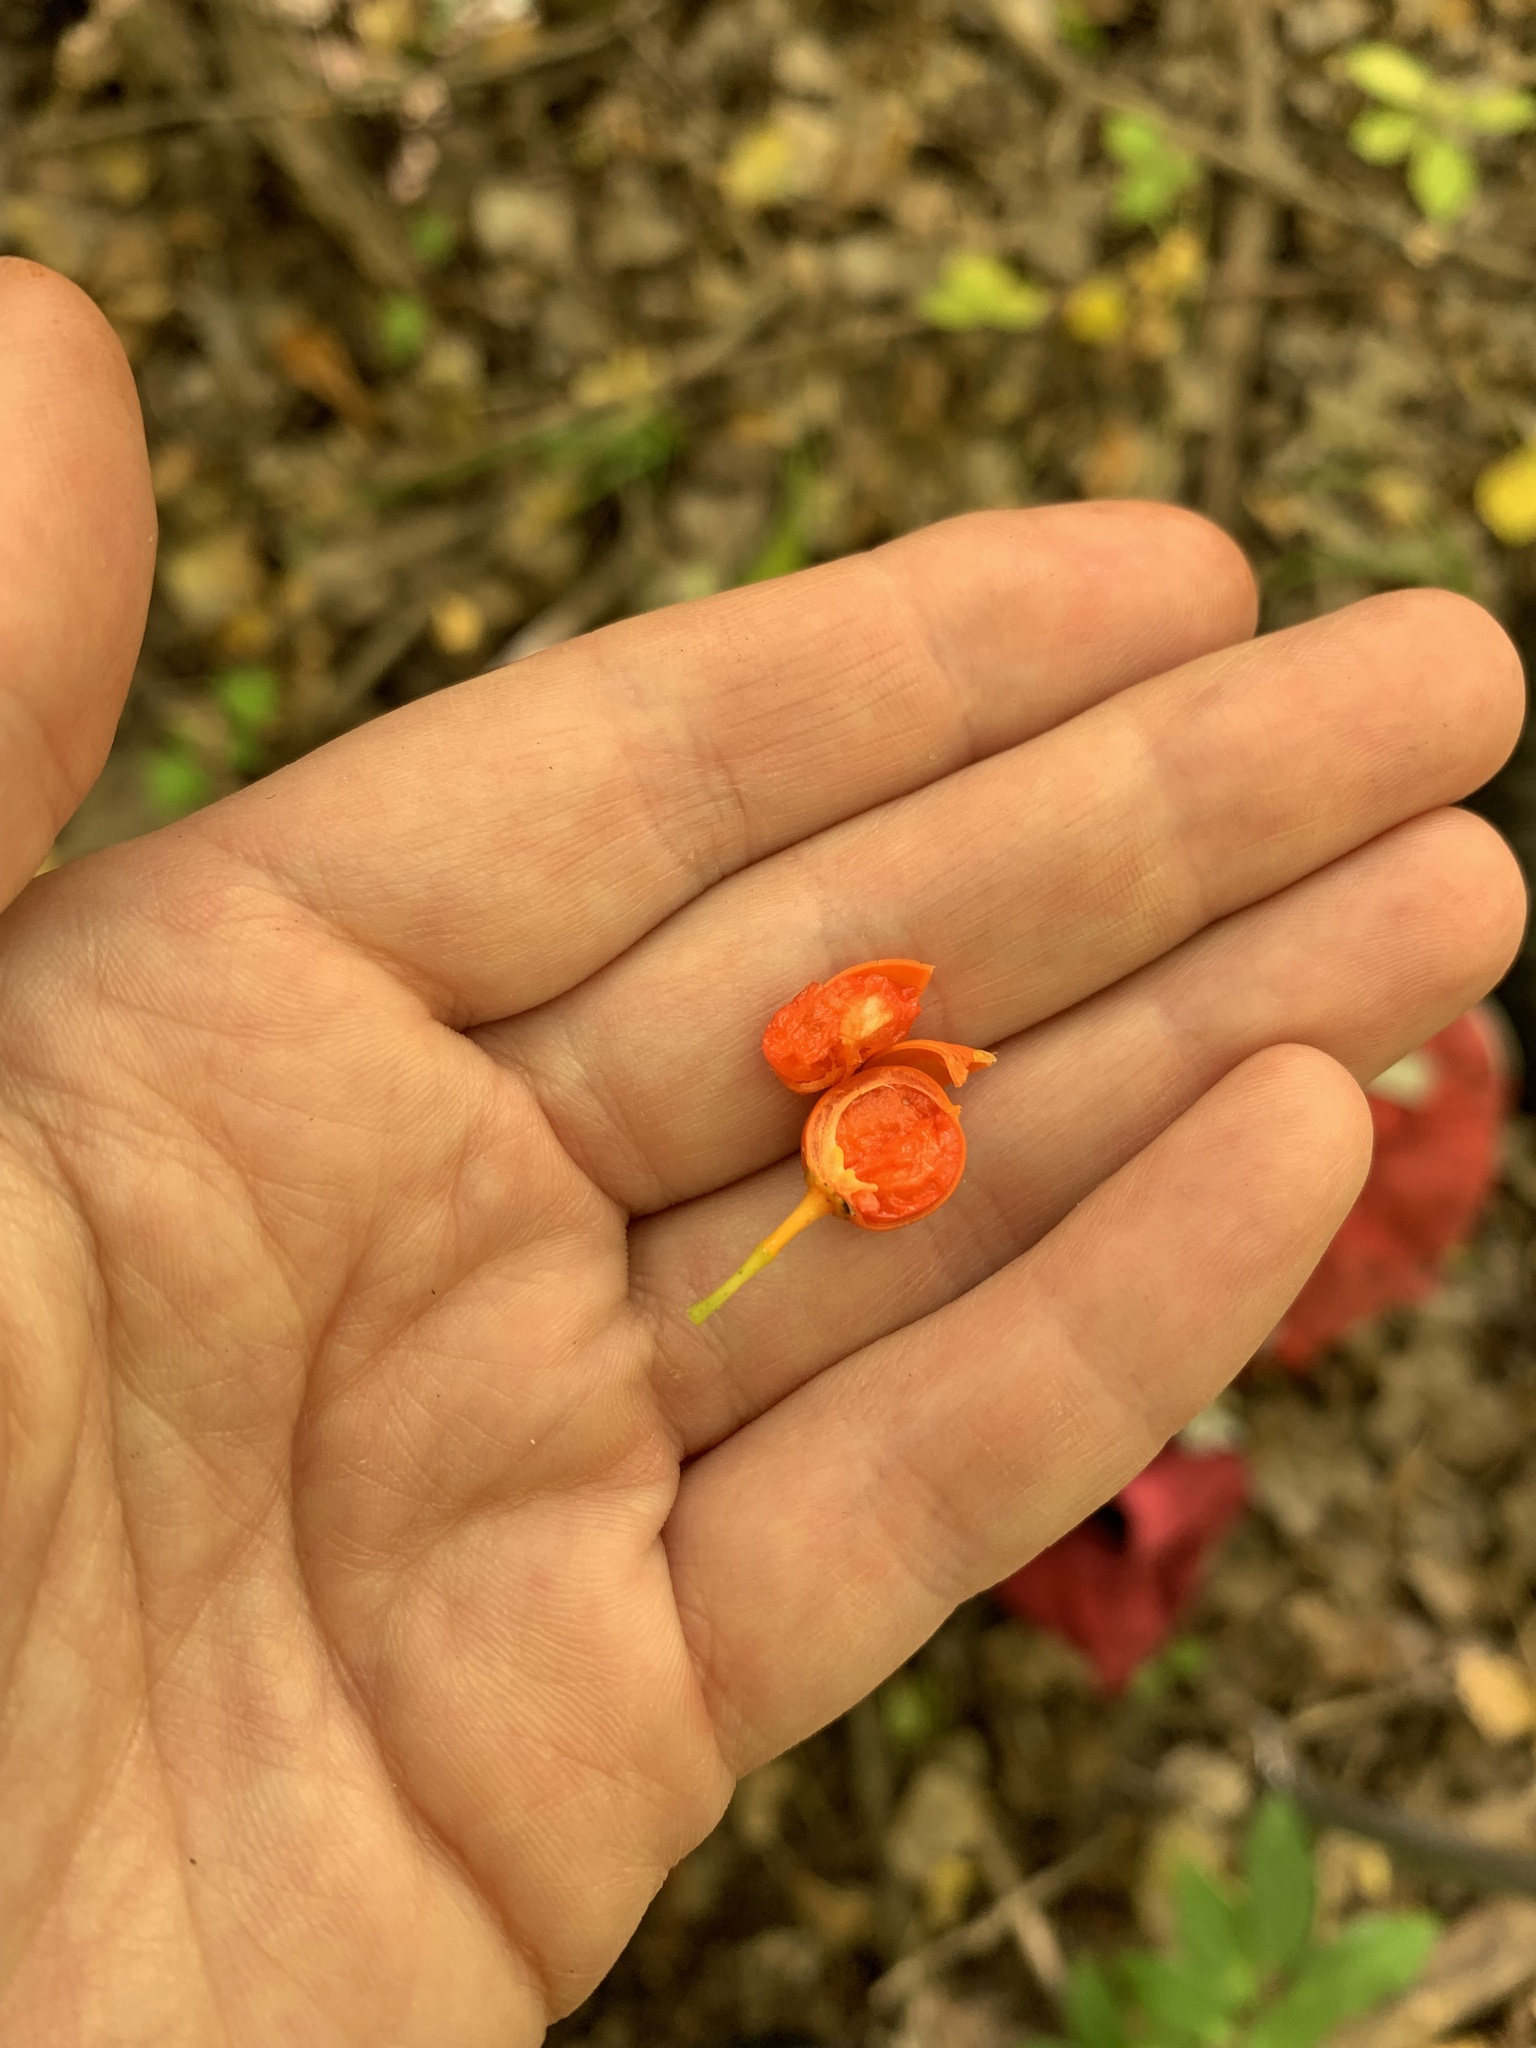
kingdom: Plantae
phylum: Tracheophyta
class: Magnoliopsida
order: Celastrales
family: Celastraceae
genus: Celastrus
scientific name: Celastrus scandens
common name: American bittersweet
